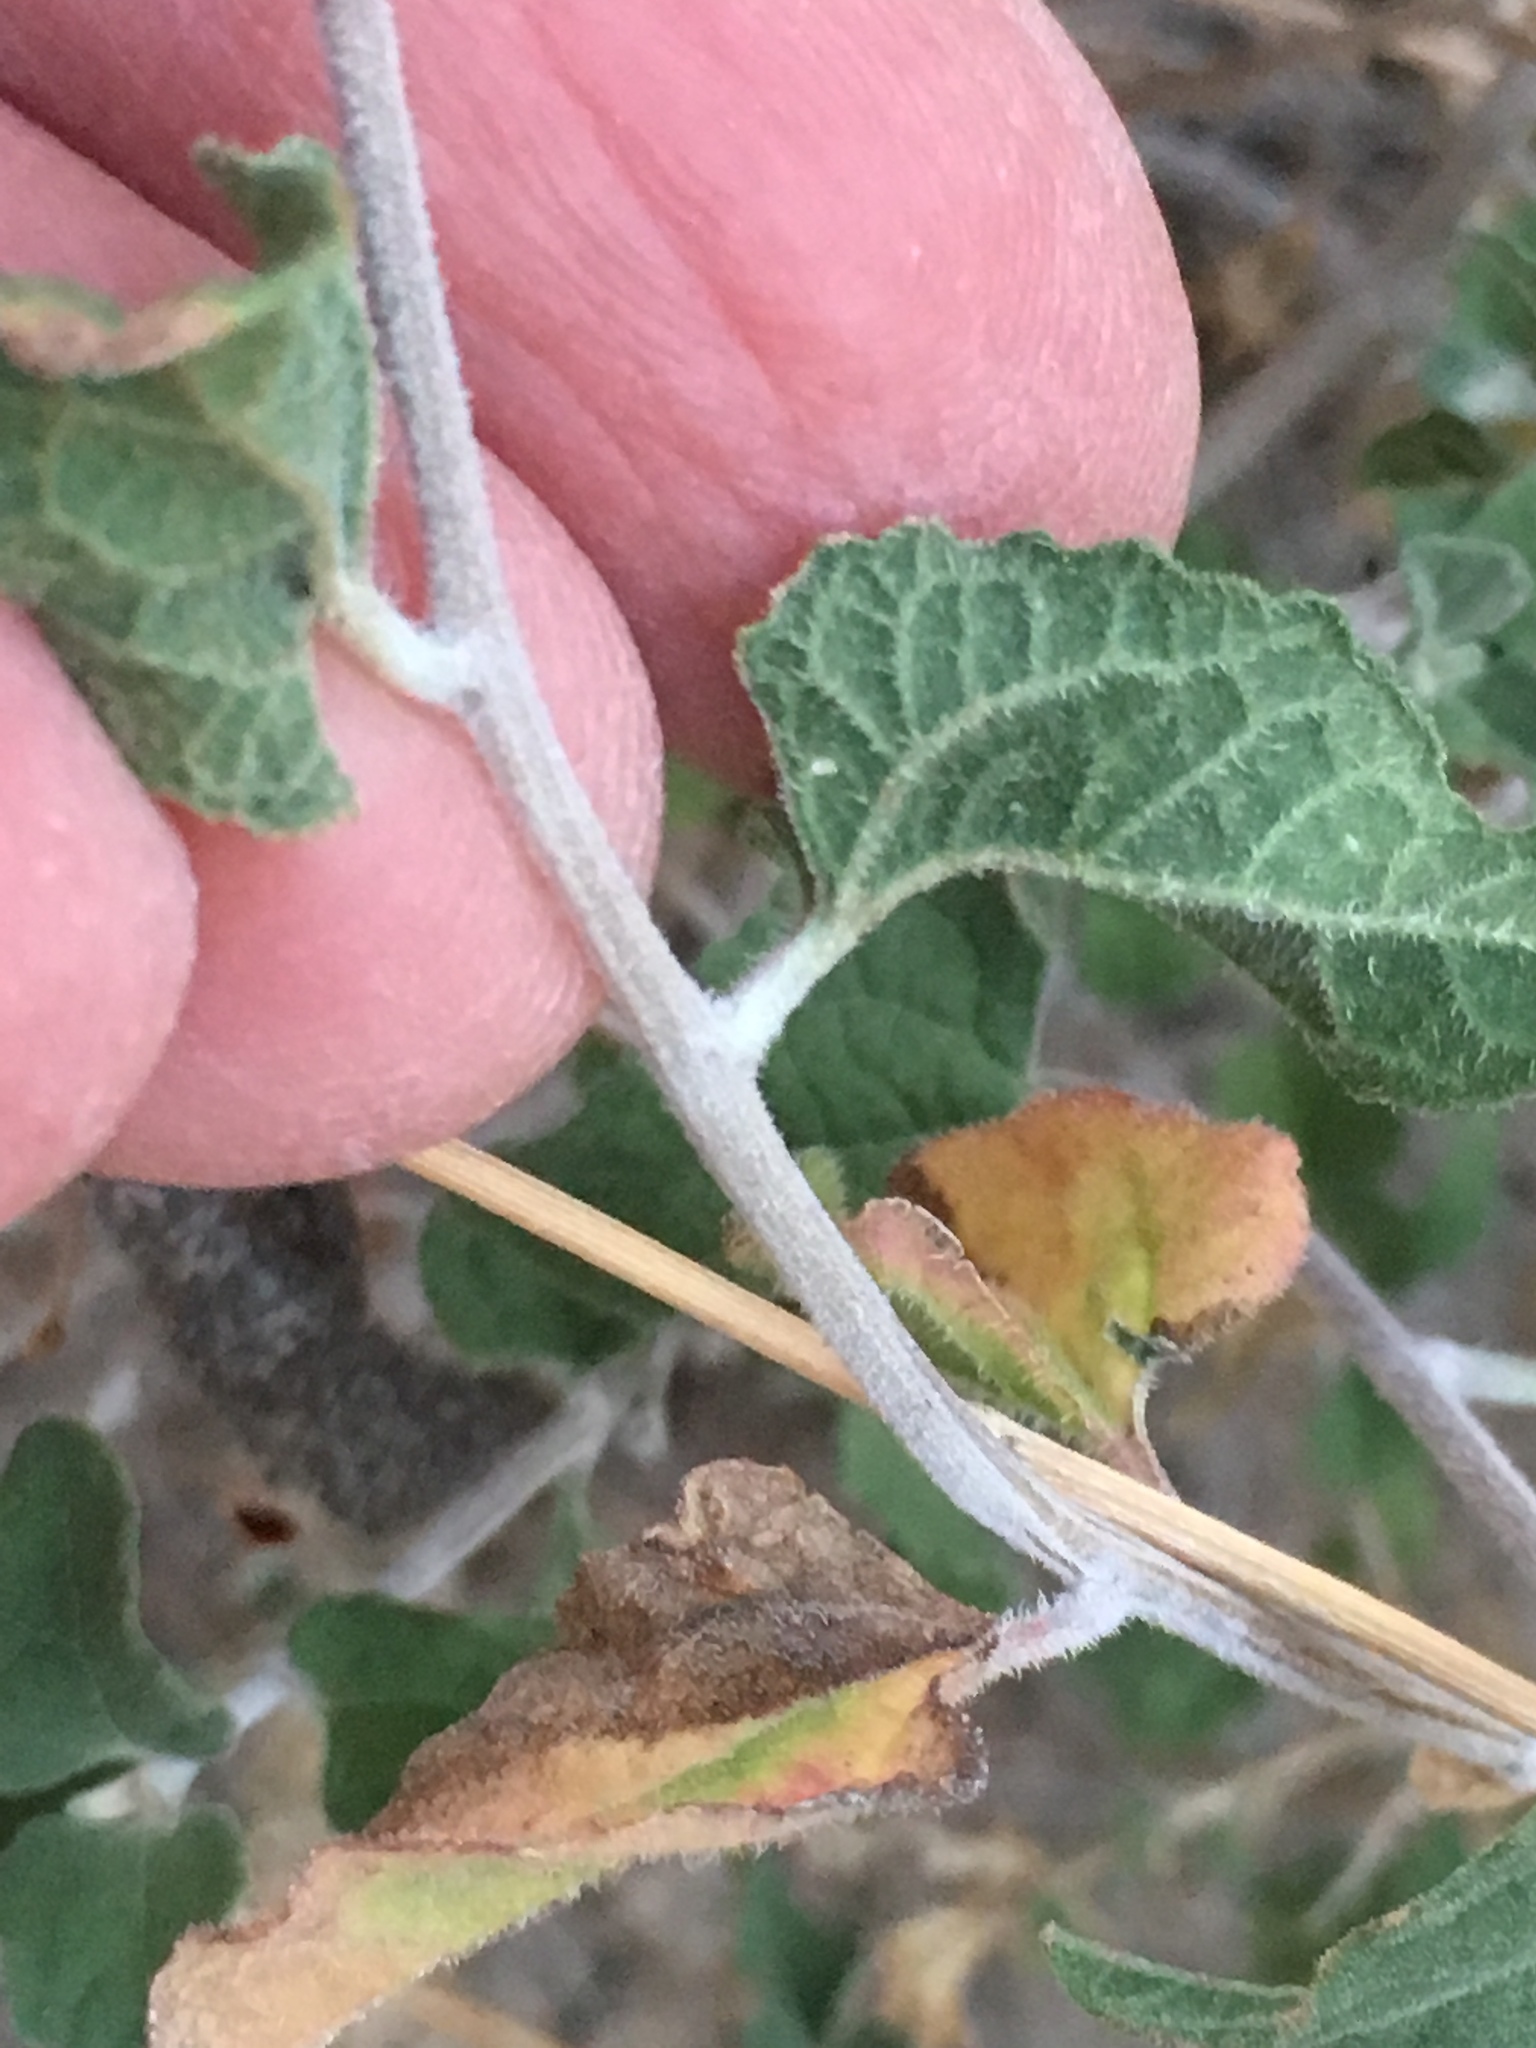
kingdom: Plantae
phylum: Tracheophyta
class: Magnoliopsida
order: Asterales
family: Asteraceae
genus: Bahiopsis
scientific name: Bahiopsis parishii
